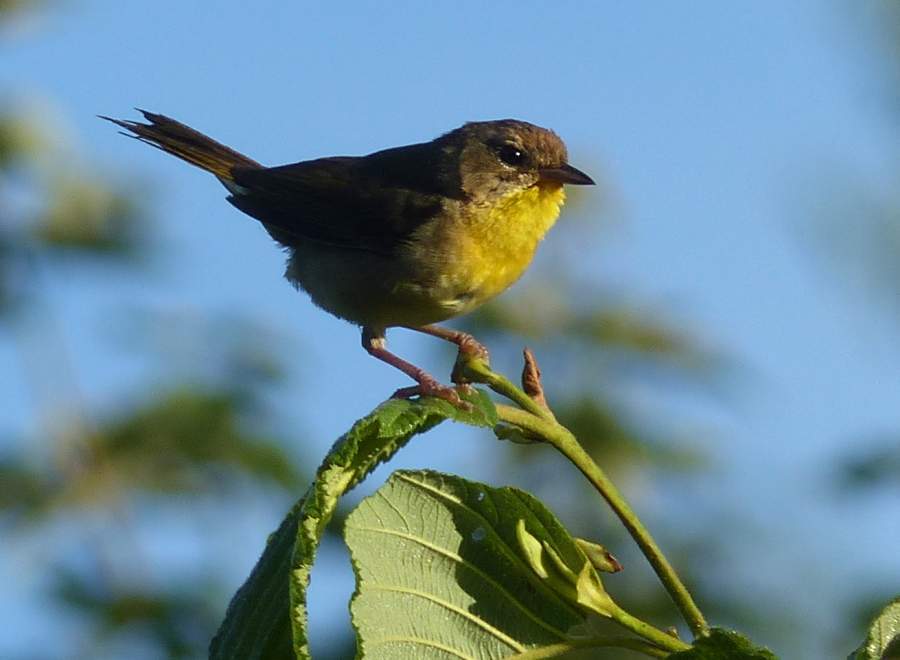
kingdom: Animalia
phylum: Chordata
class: Aves
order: Passeriformes
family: Parulidae
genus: Geothlypis
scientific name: Geothlypis trichas
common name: Common yellowthroat
